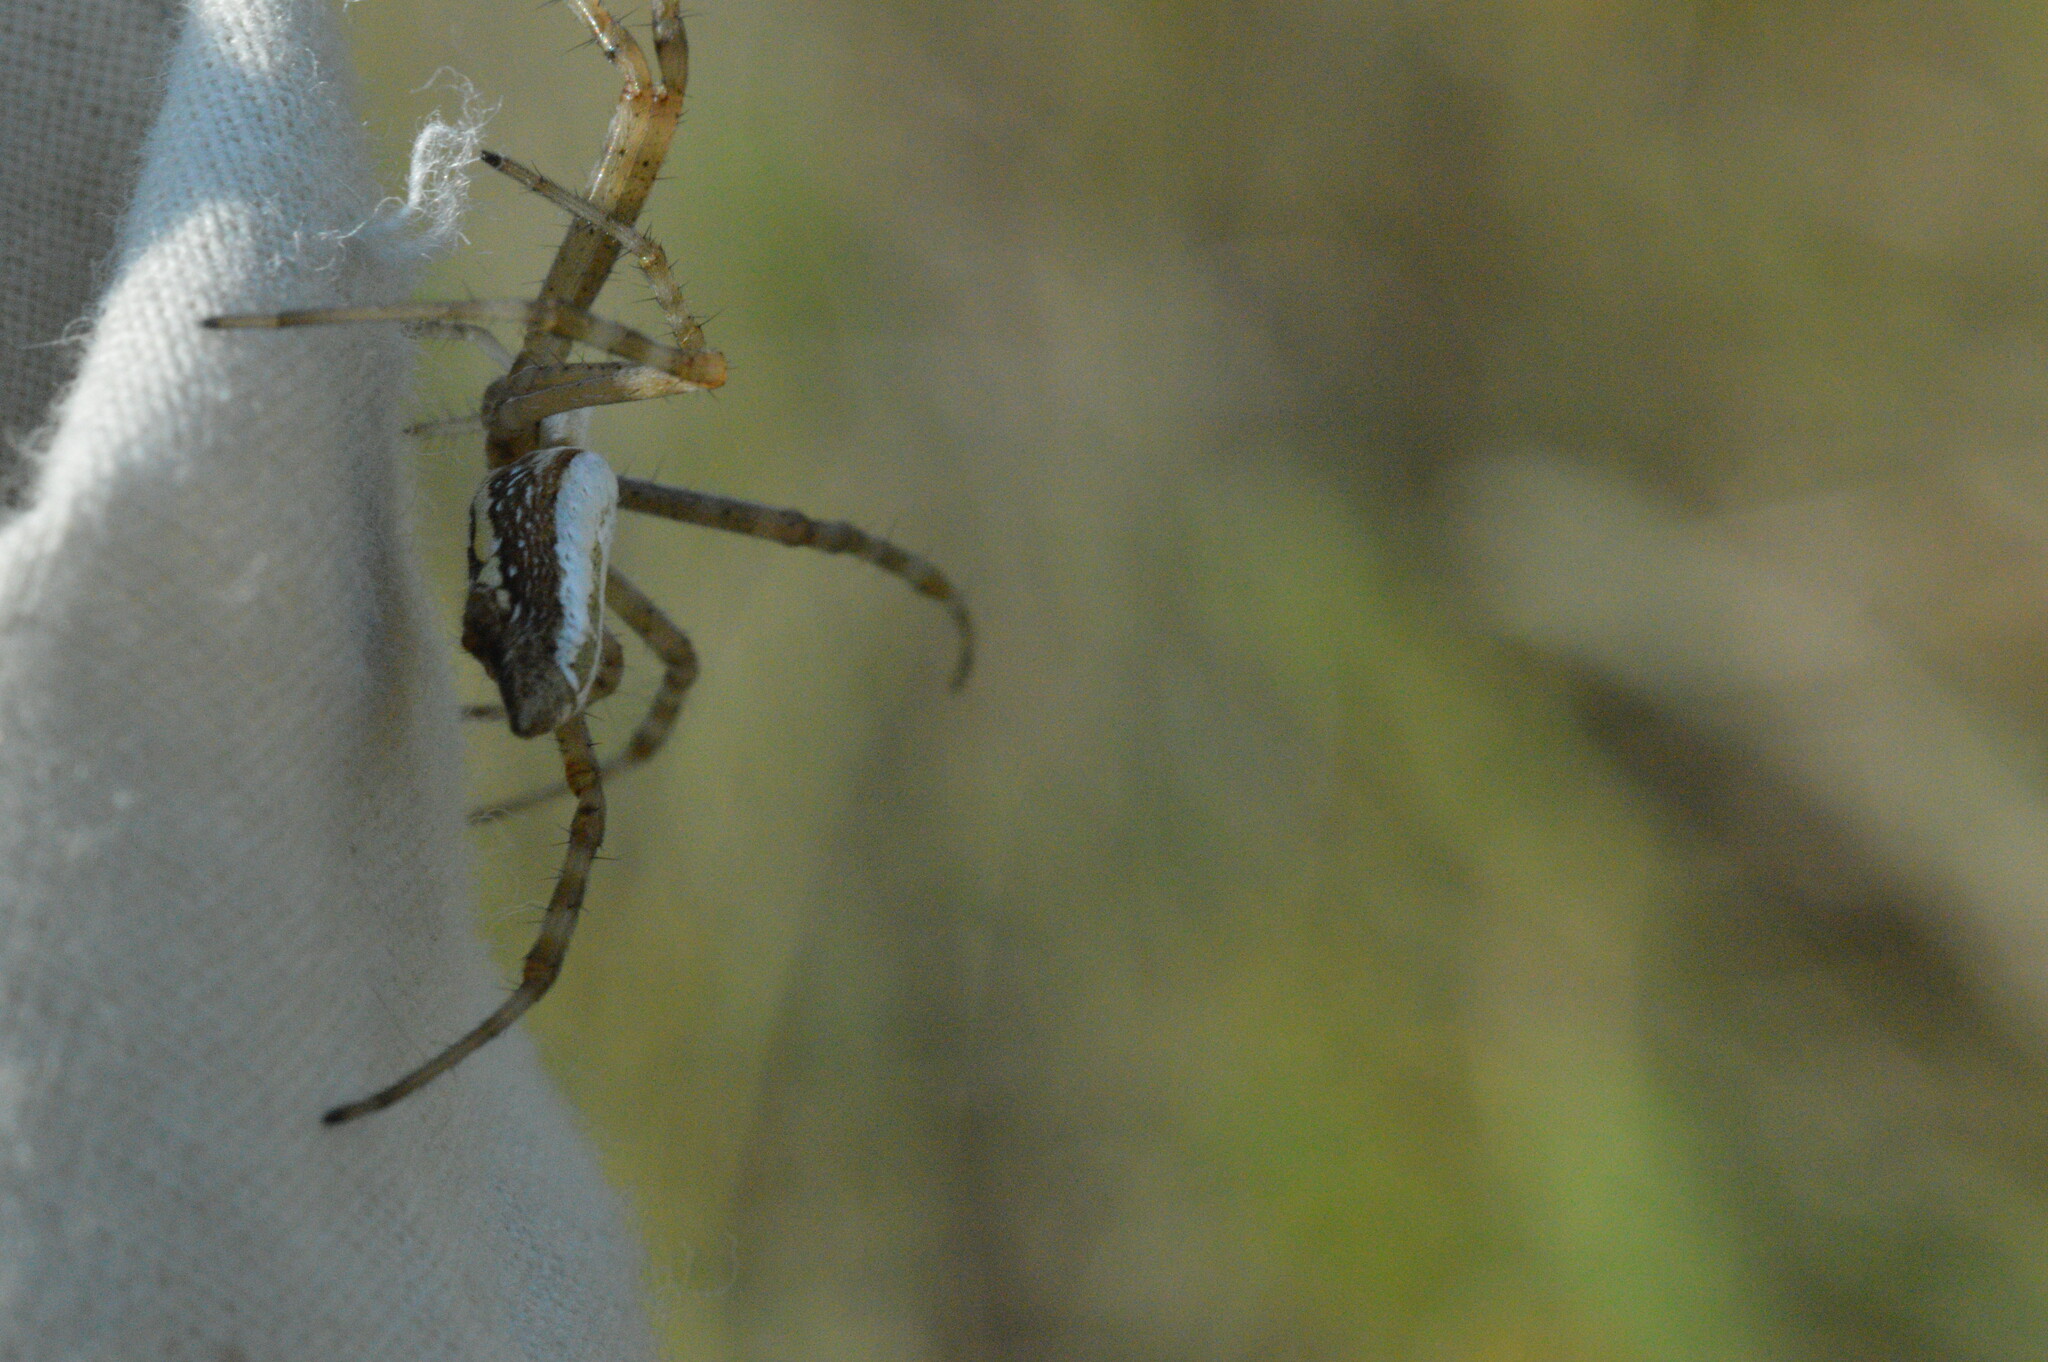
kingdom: Animalia
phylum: Arthropoda
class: Arachnida
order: Araneae
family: Araneidae
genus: Argiope
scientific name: Argiope trifasciata
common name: Banded garden spider
